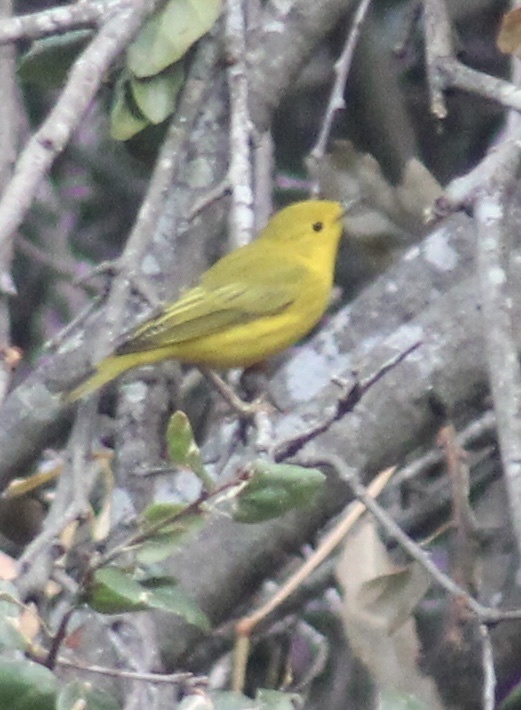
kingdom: Animalia
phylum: Chordata
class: Aves
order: Passeriformes
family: Parulidae
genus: Setophaga
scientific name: Setophaga petechia
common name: Yellow warbler
